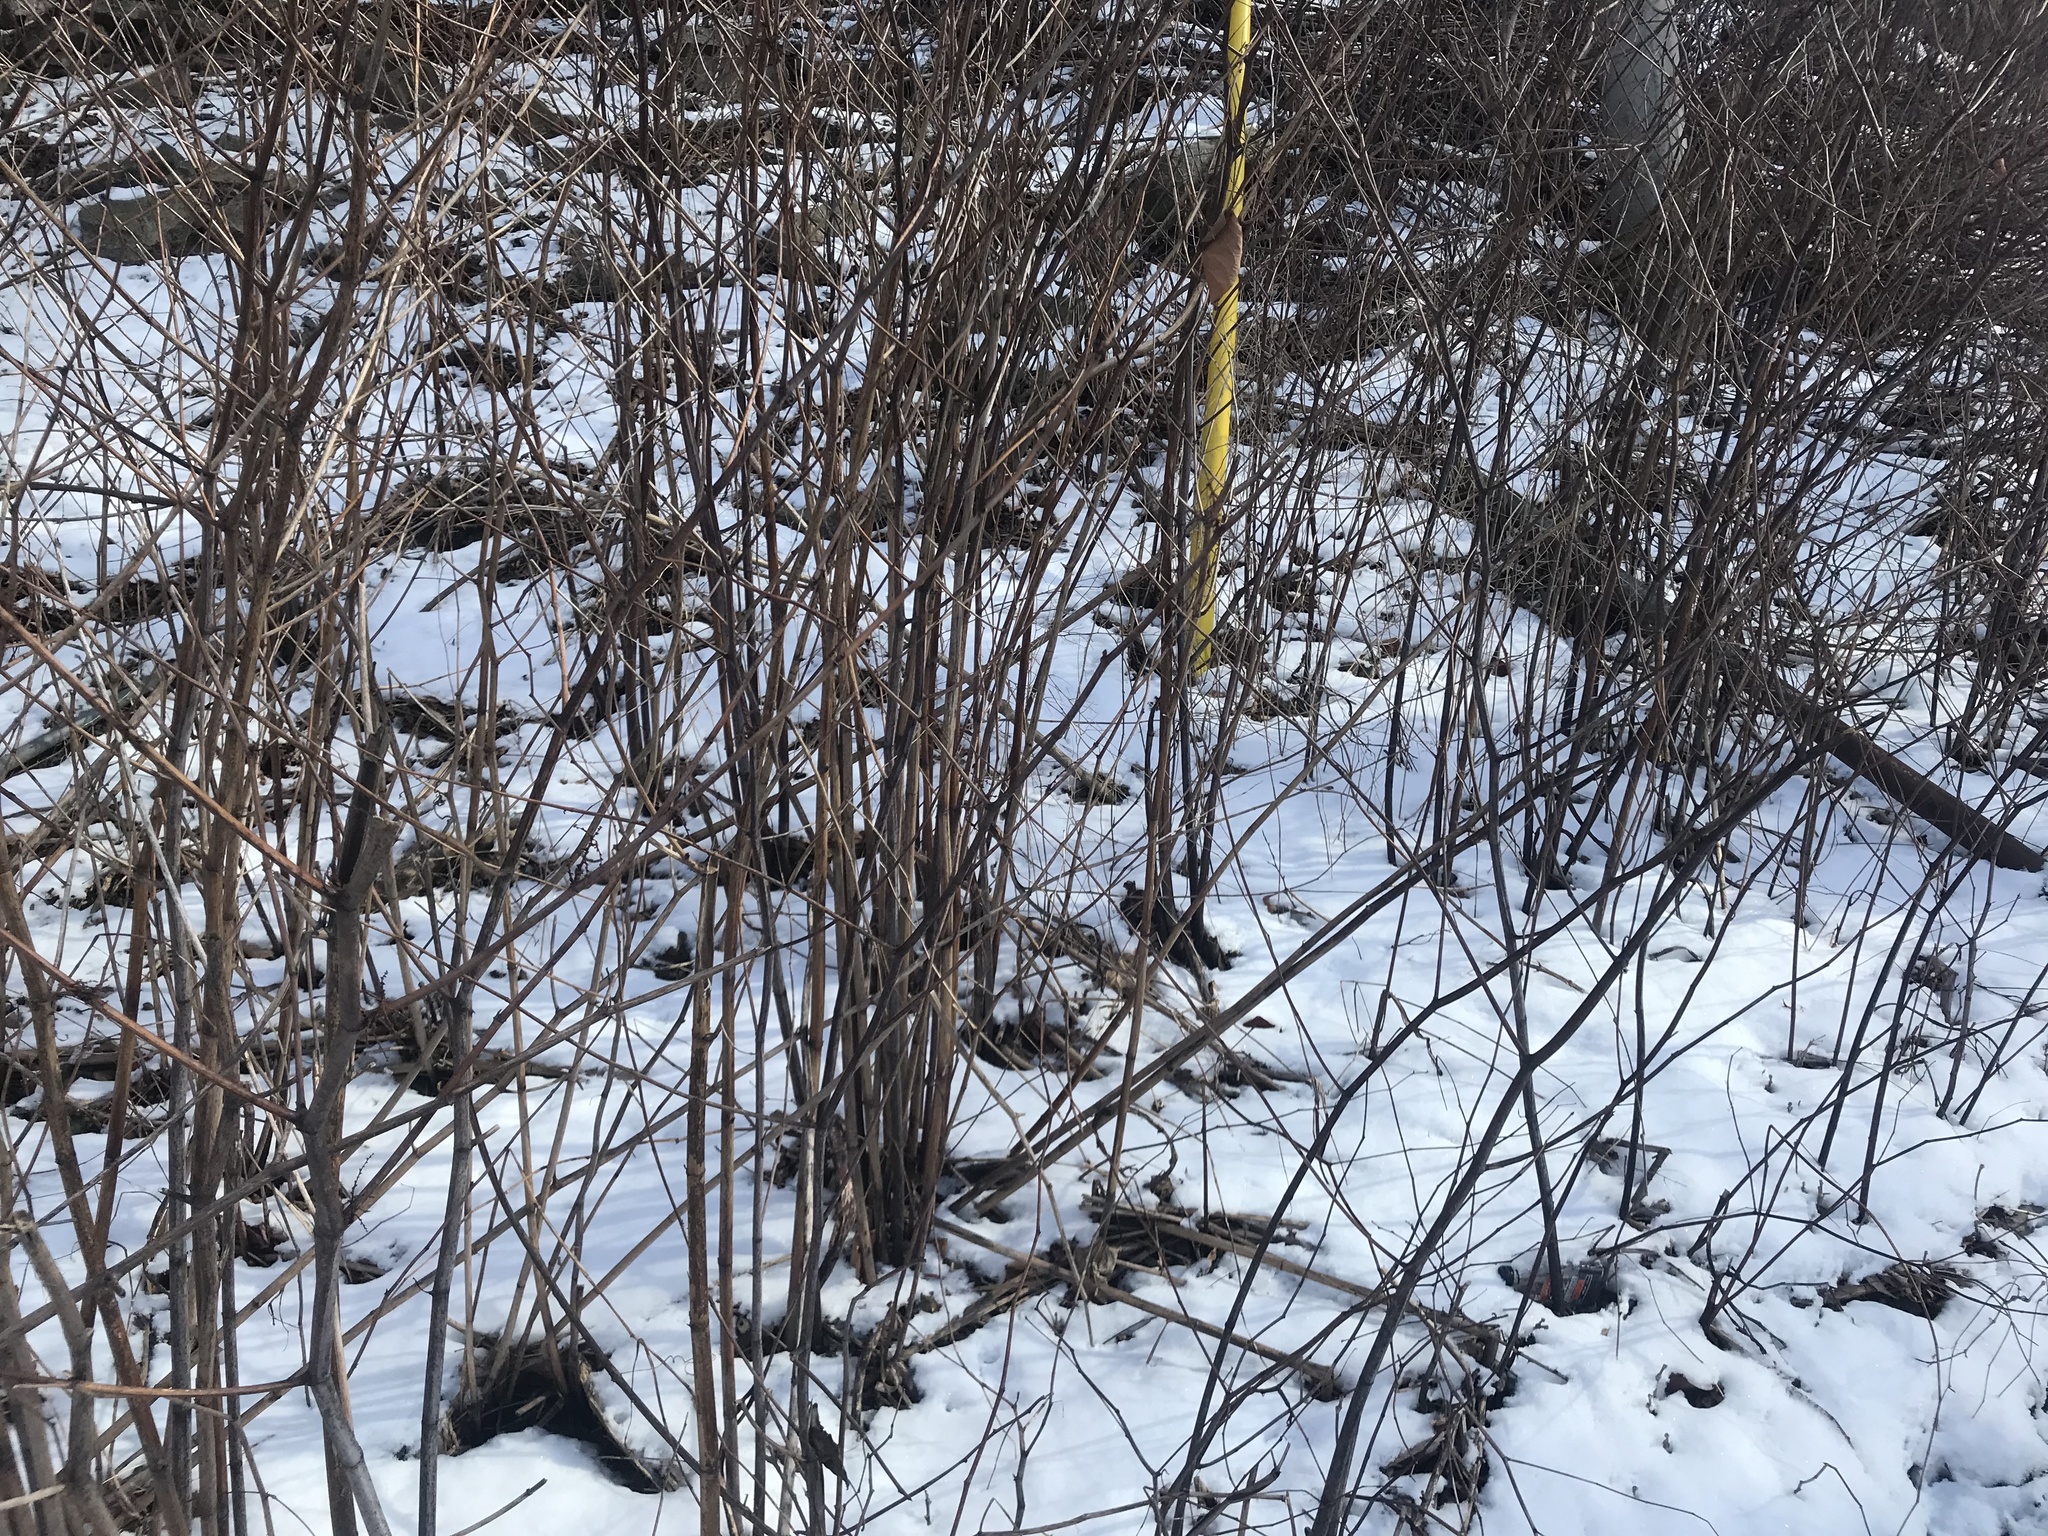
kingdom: Plantae
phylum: Tracheophyta
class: Magnoliopsida
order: Caryophyllales
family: Polygonaceae
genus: Reynoutria
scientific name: Reynoutria japonica
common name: Japanese knotweed
